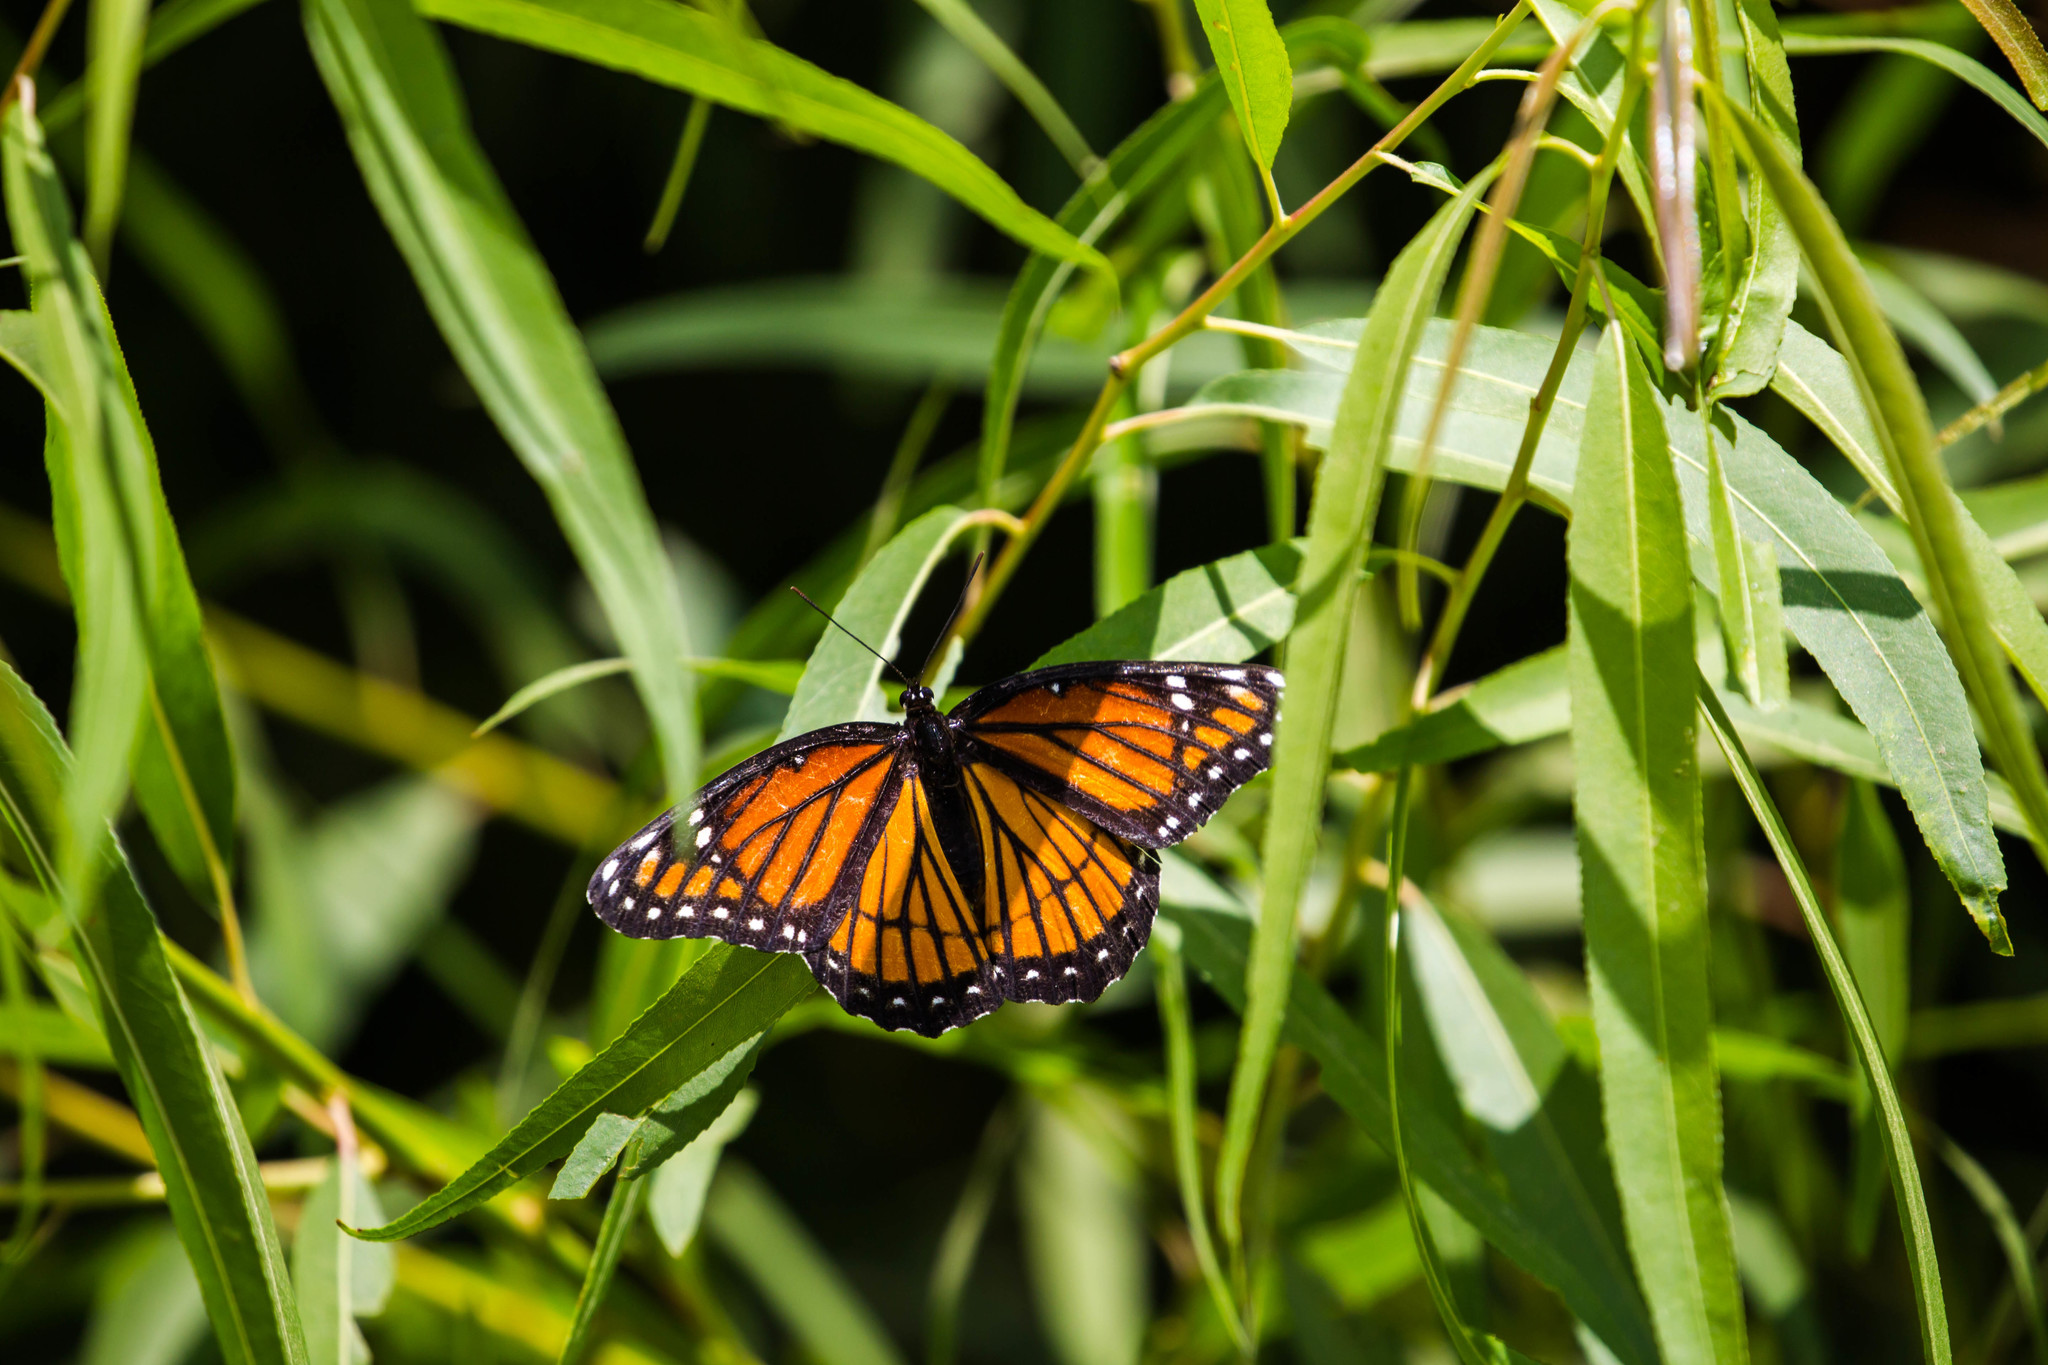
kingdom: Animalia
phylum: Arthropoda
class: Insecta
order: Lepidoptera
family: Nymphalidae
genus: Limenitis
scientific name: Limenitis archippus
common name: Viceroy
